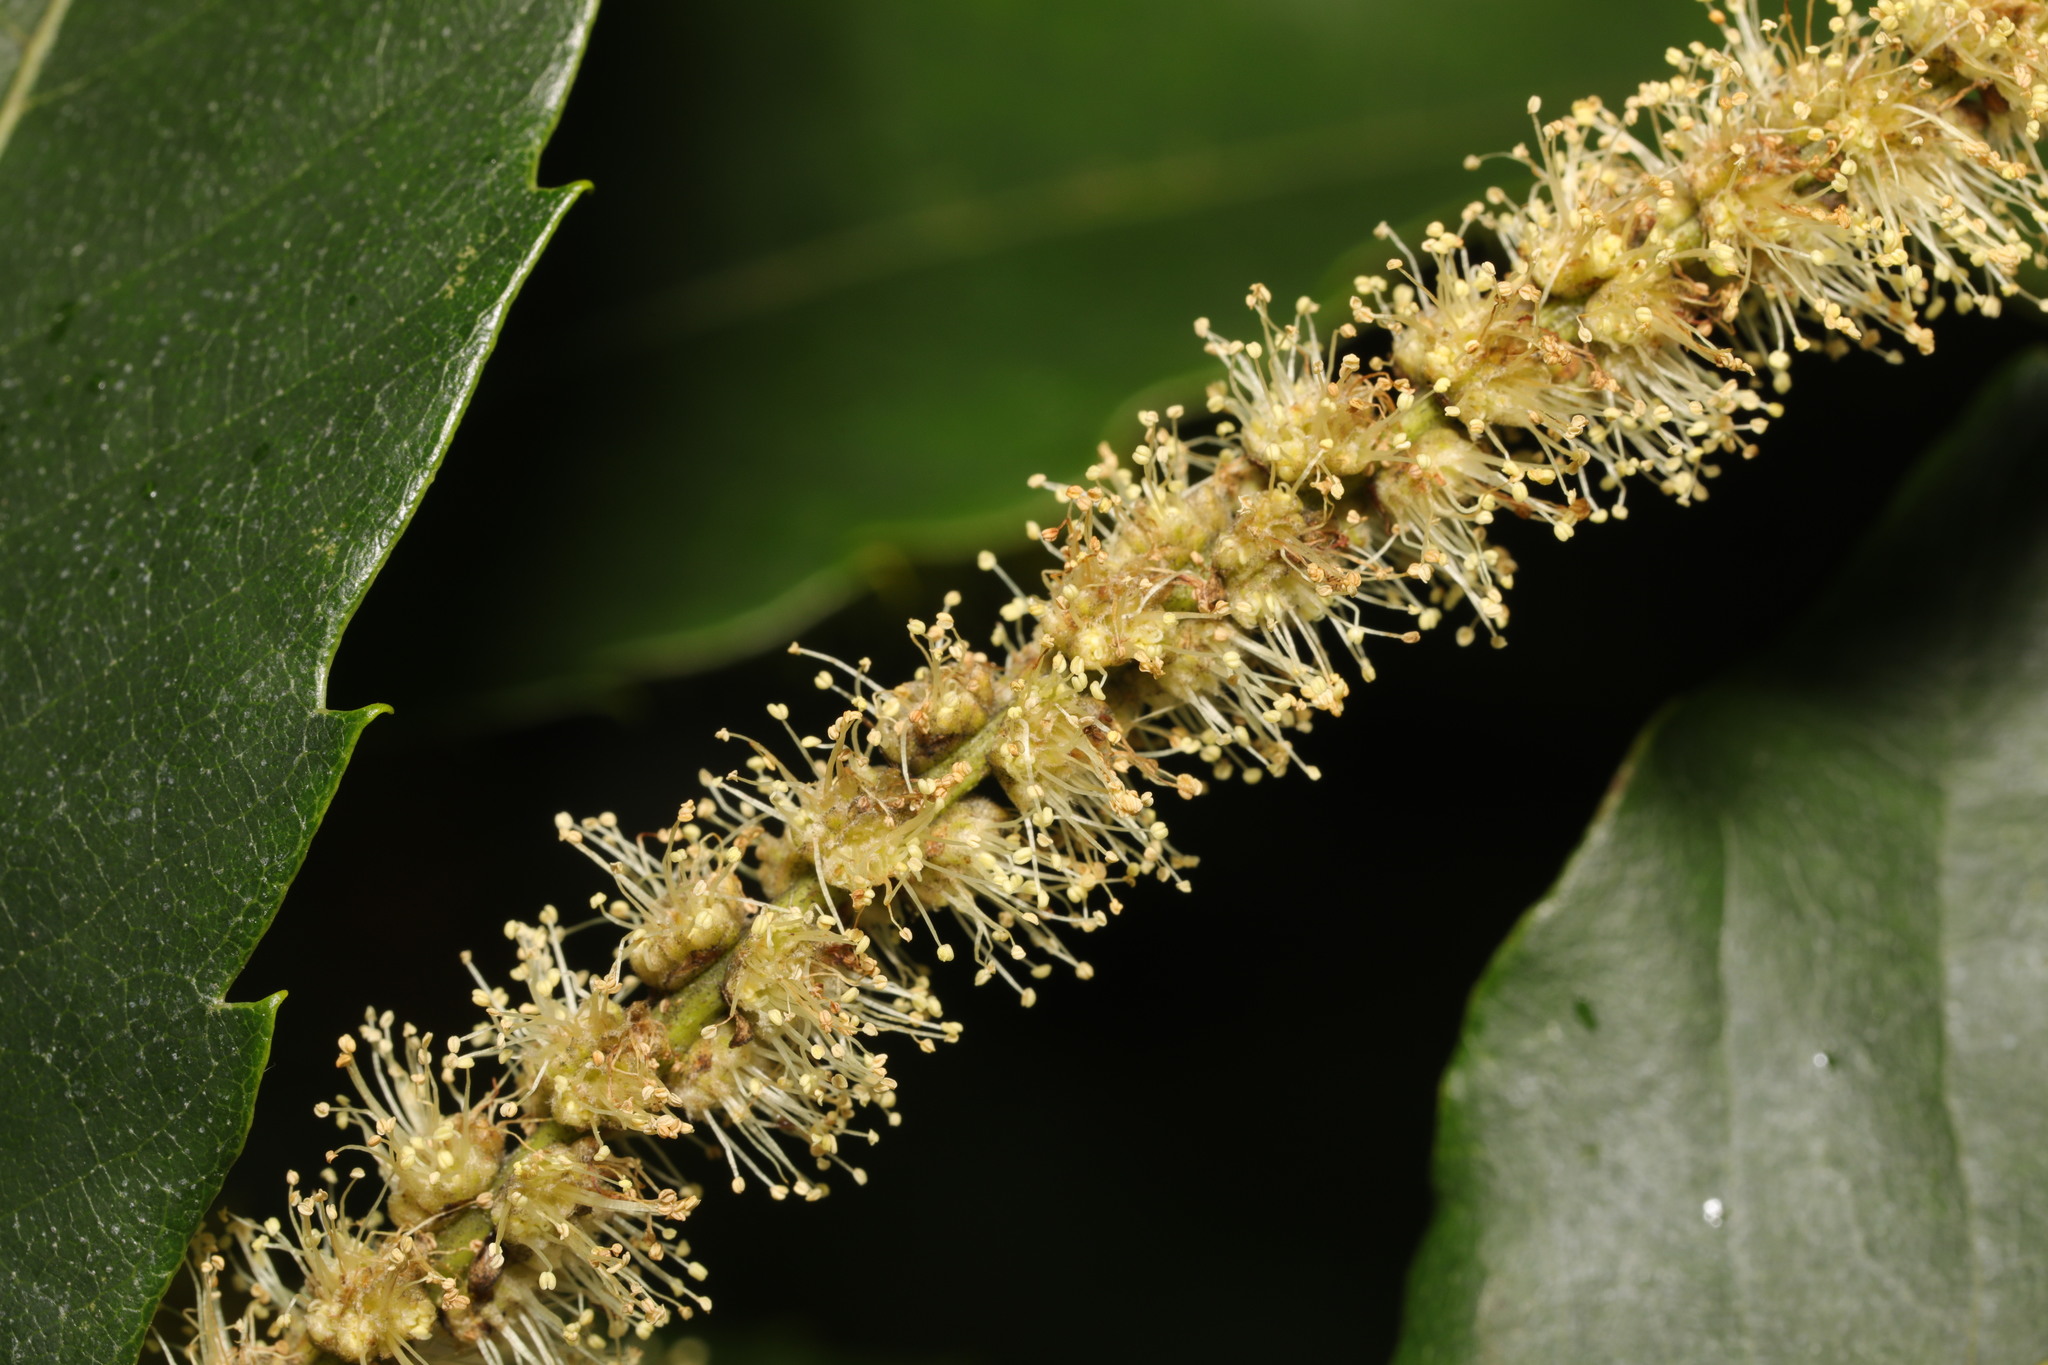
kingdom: Plantae
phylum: Tracheophyta
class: Magnoliopsida
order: Fagales
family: Fagaceae
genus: Castanea
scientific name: Castanea sativa
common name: Sweet chestnut
